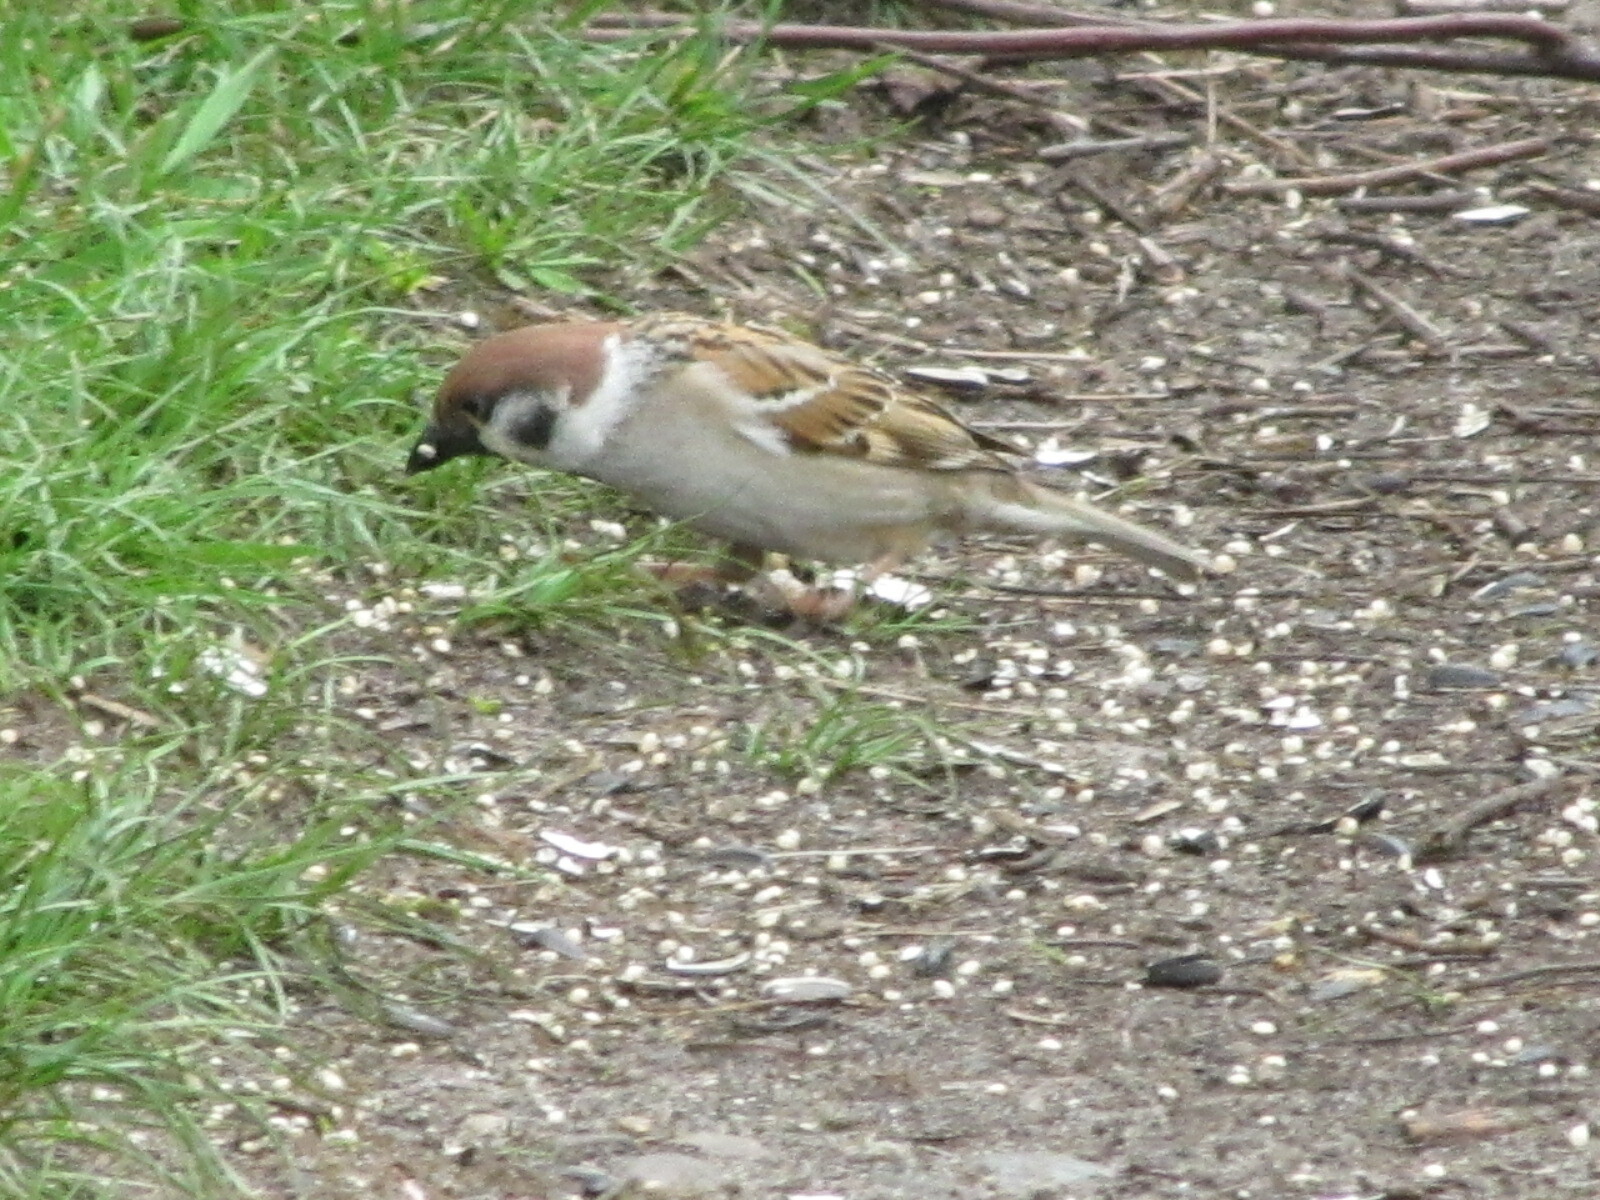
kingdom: Animalia
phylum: Chordata
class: Aves
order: Passeriformes
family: Passeridae
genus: Passer
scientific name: Passer montanus
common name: Eurasian tree sparrow
